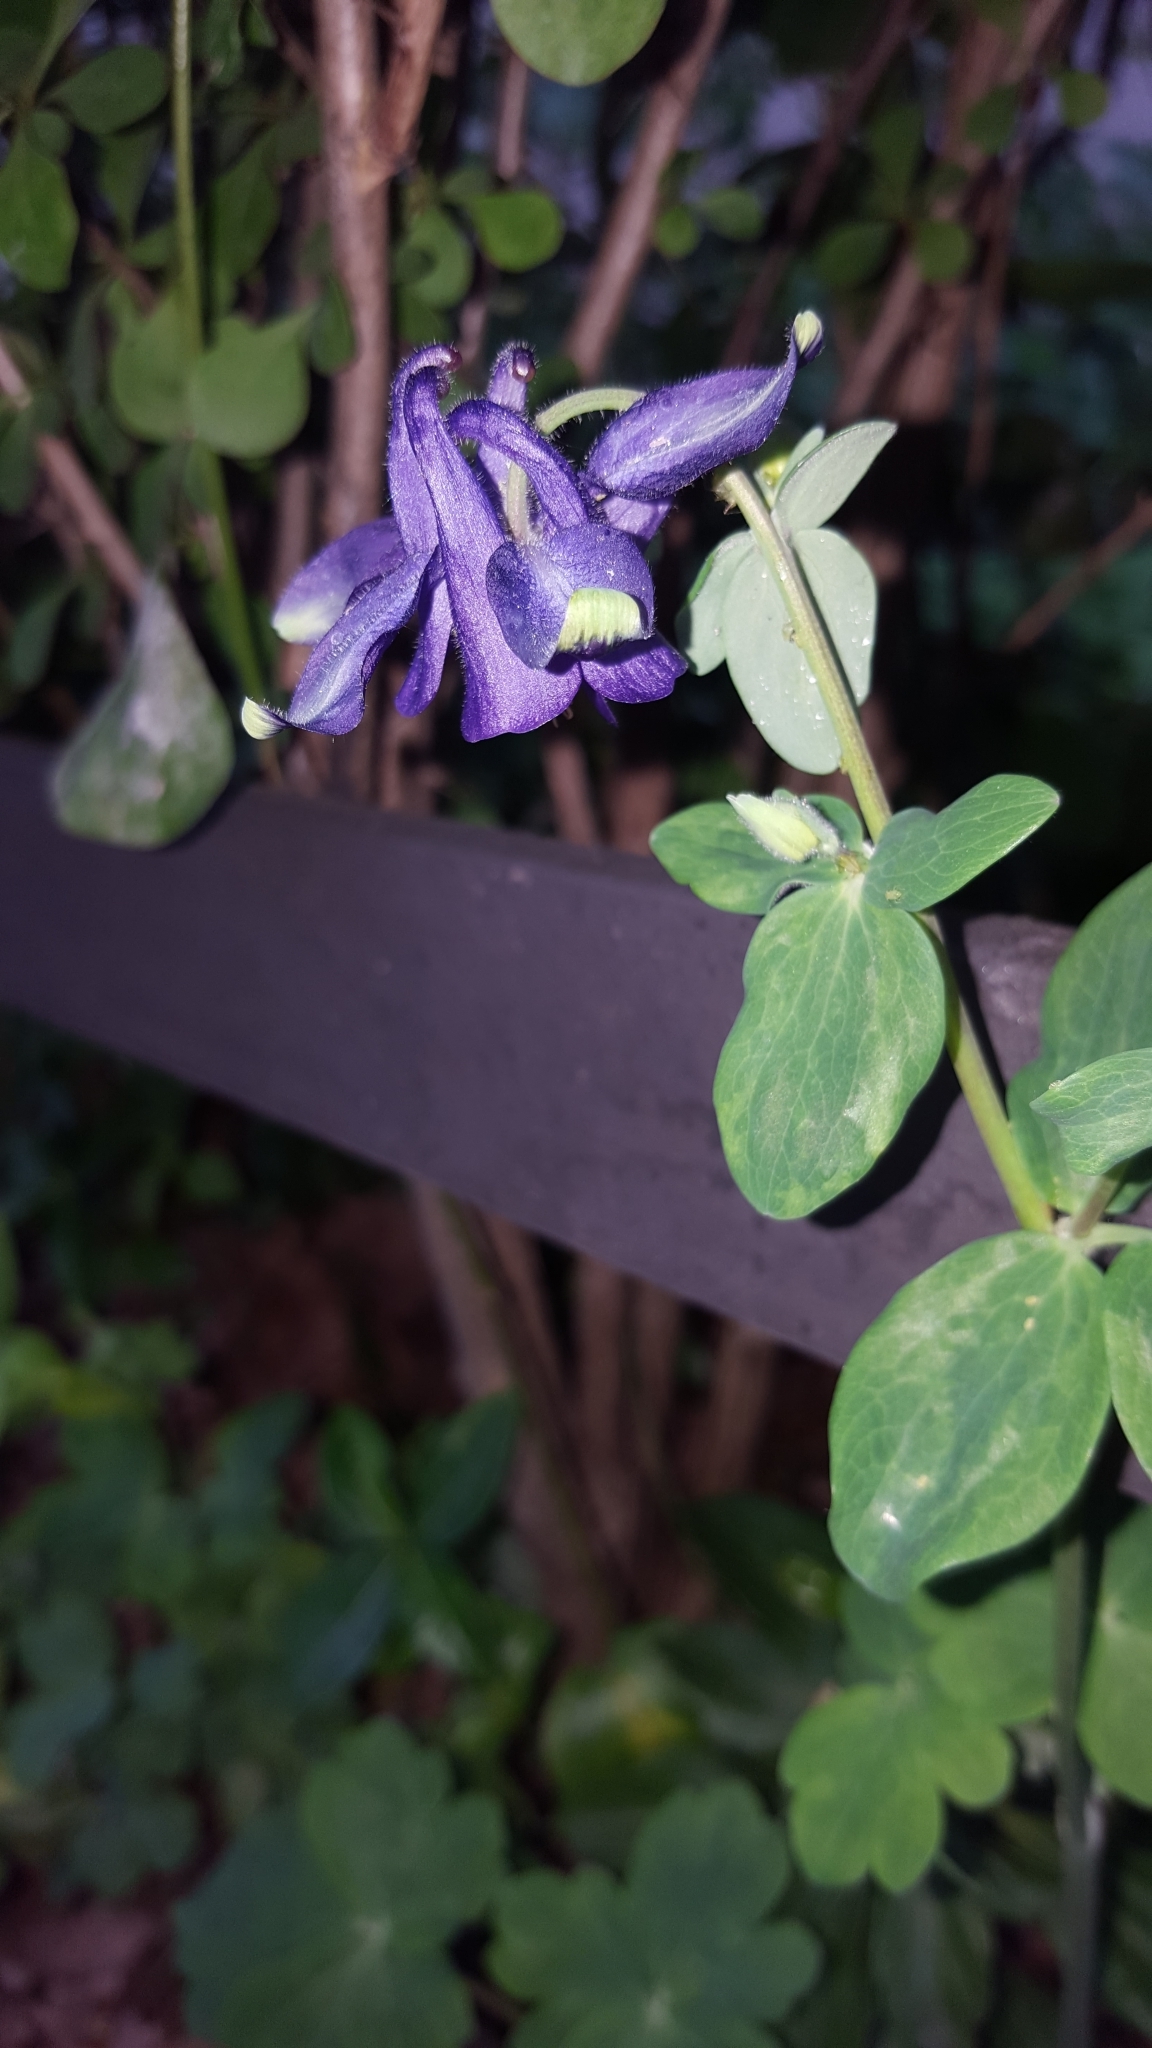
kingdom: Plantae
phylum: Tracheophyta
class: Magnoliopsida
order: Ranunculales
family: Ranunculaceae
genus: Aquilegia
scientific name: Aquilegia vulgaris
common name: Columbine
